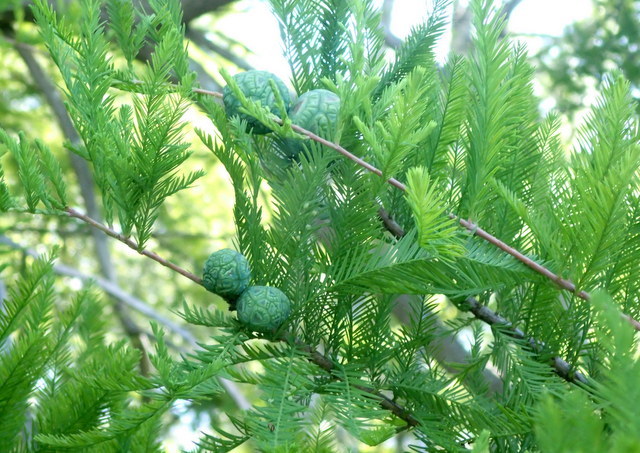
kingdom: Plantae
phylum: Tracheophyta
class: Pinopsida
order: Pinales
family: Cupressaceae
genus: Taxodium
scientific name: Taxodium distichum
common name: Bald cypress
